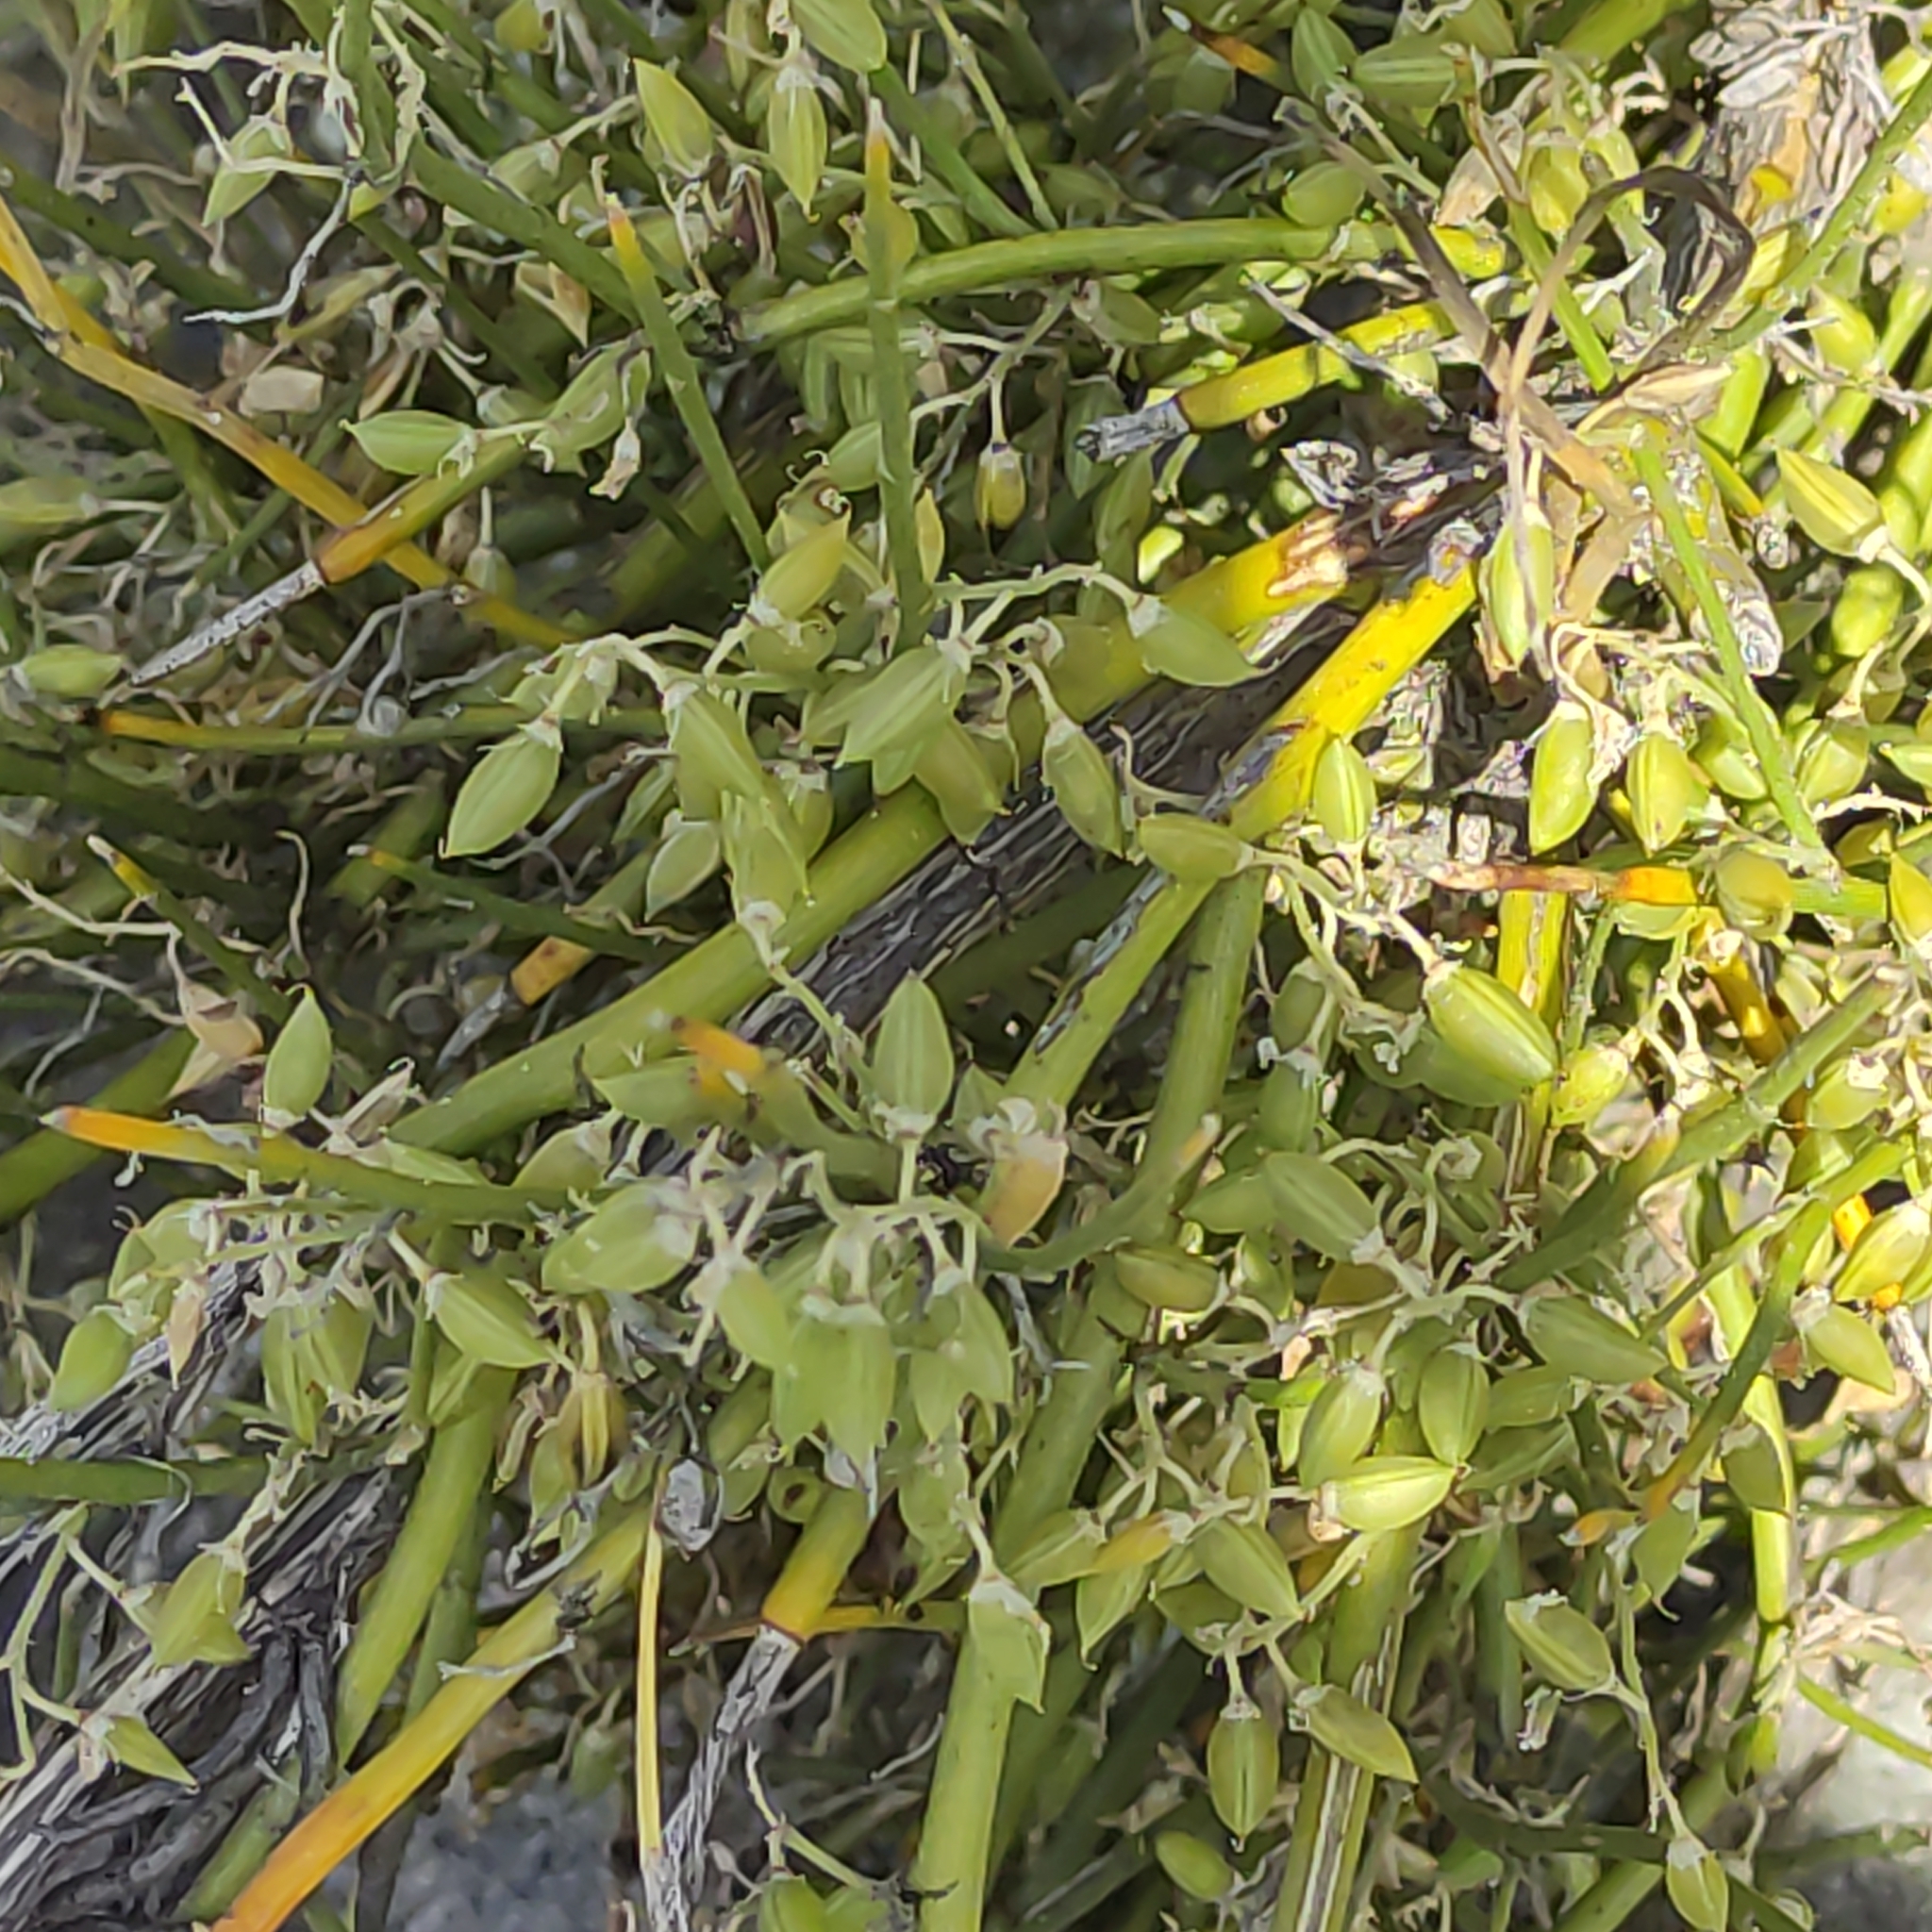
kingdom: Plantae
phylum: Tracheophyta
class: Magnoliopsida
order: Fabales
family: Fabaceae
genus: Carmichaelia
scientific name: Carmichaelia petriei
